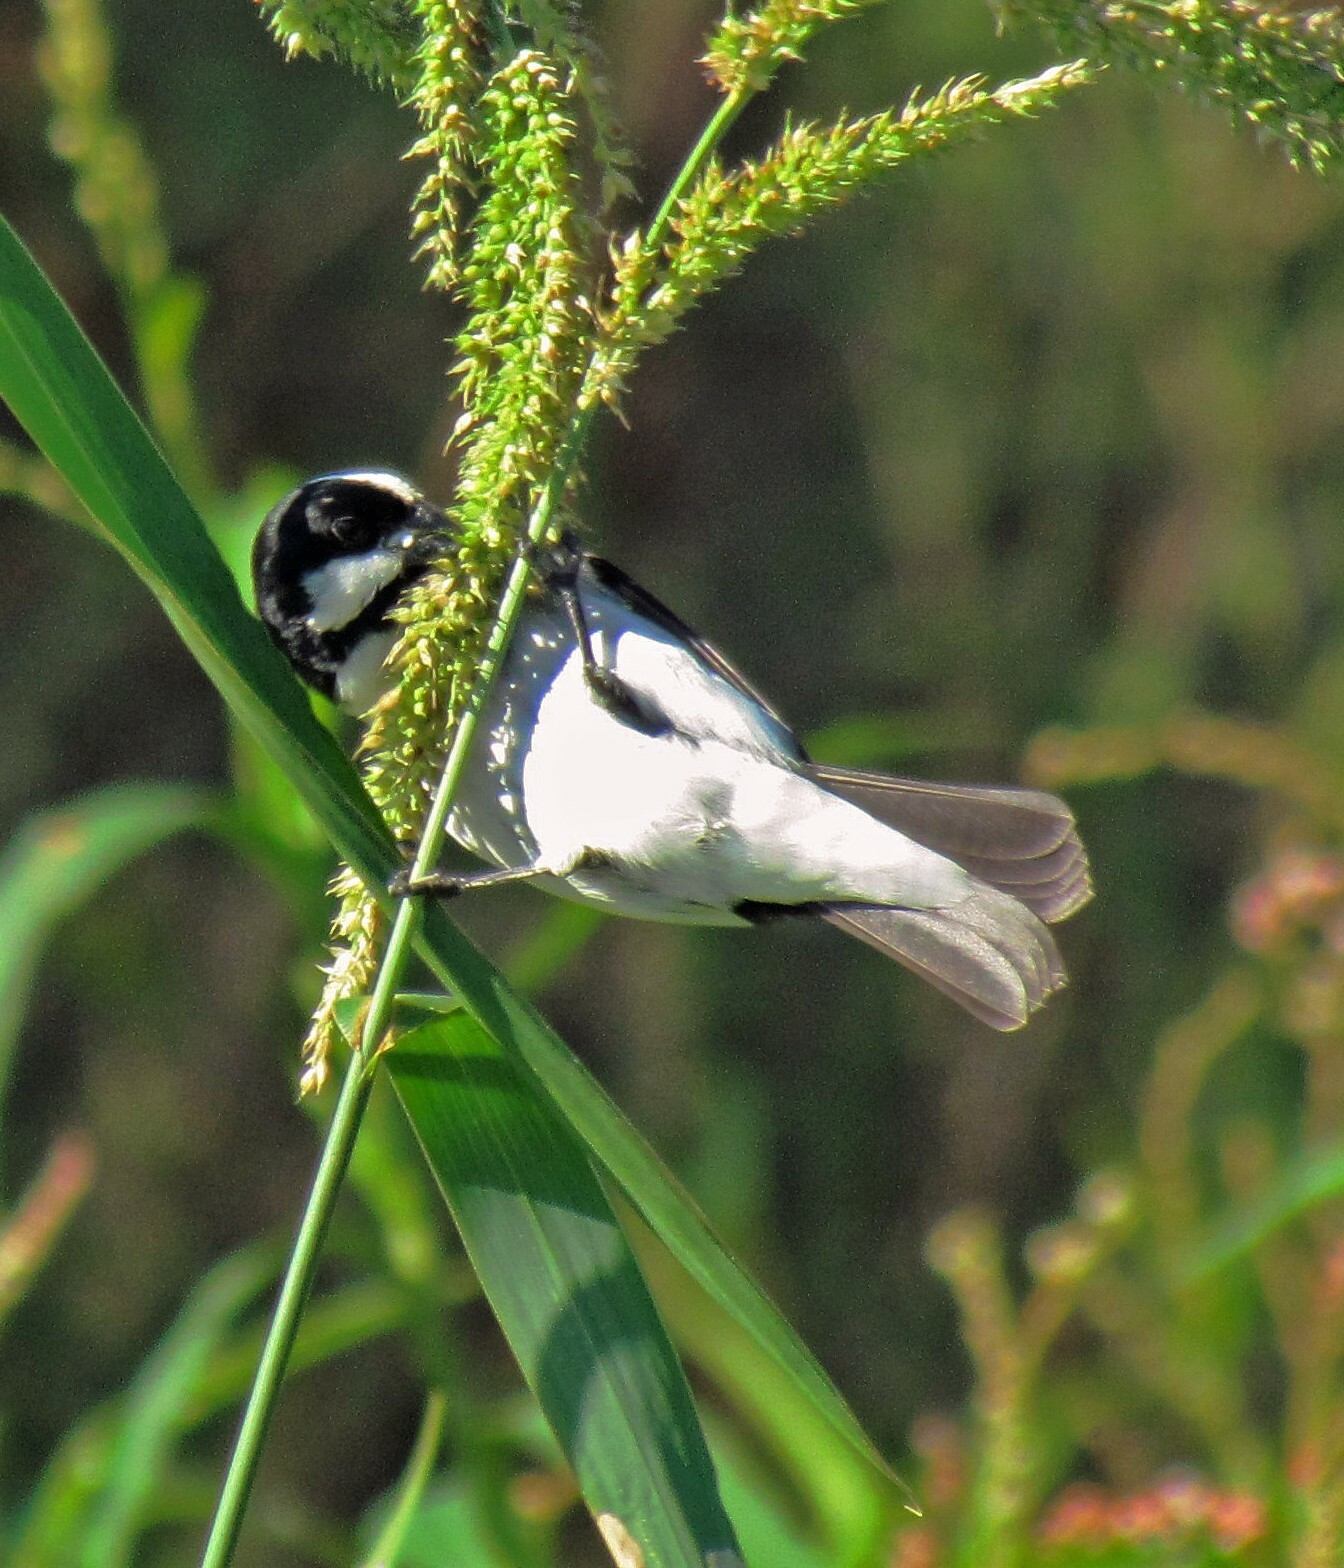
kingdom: Animalia
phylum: Chordata
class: Aves
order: Passeriformes
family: Thraupidae
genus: Sporophila
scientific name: Sporophila lineola
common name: Lined seedeater
